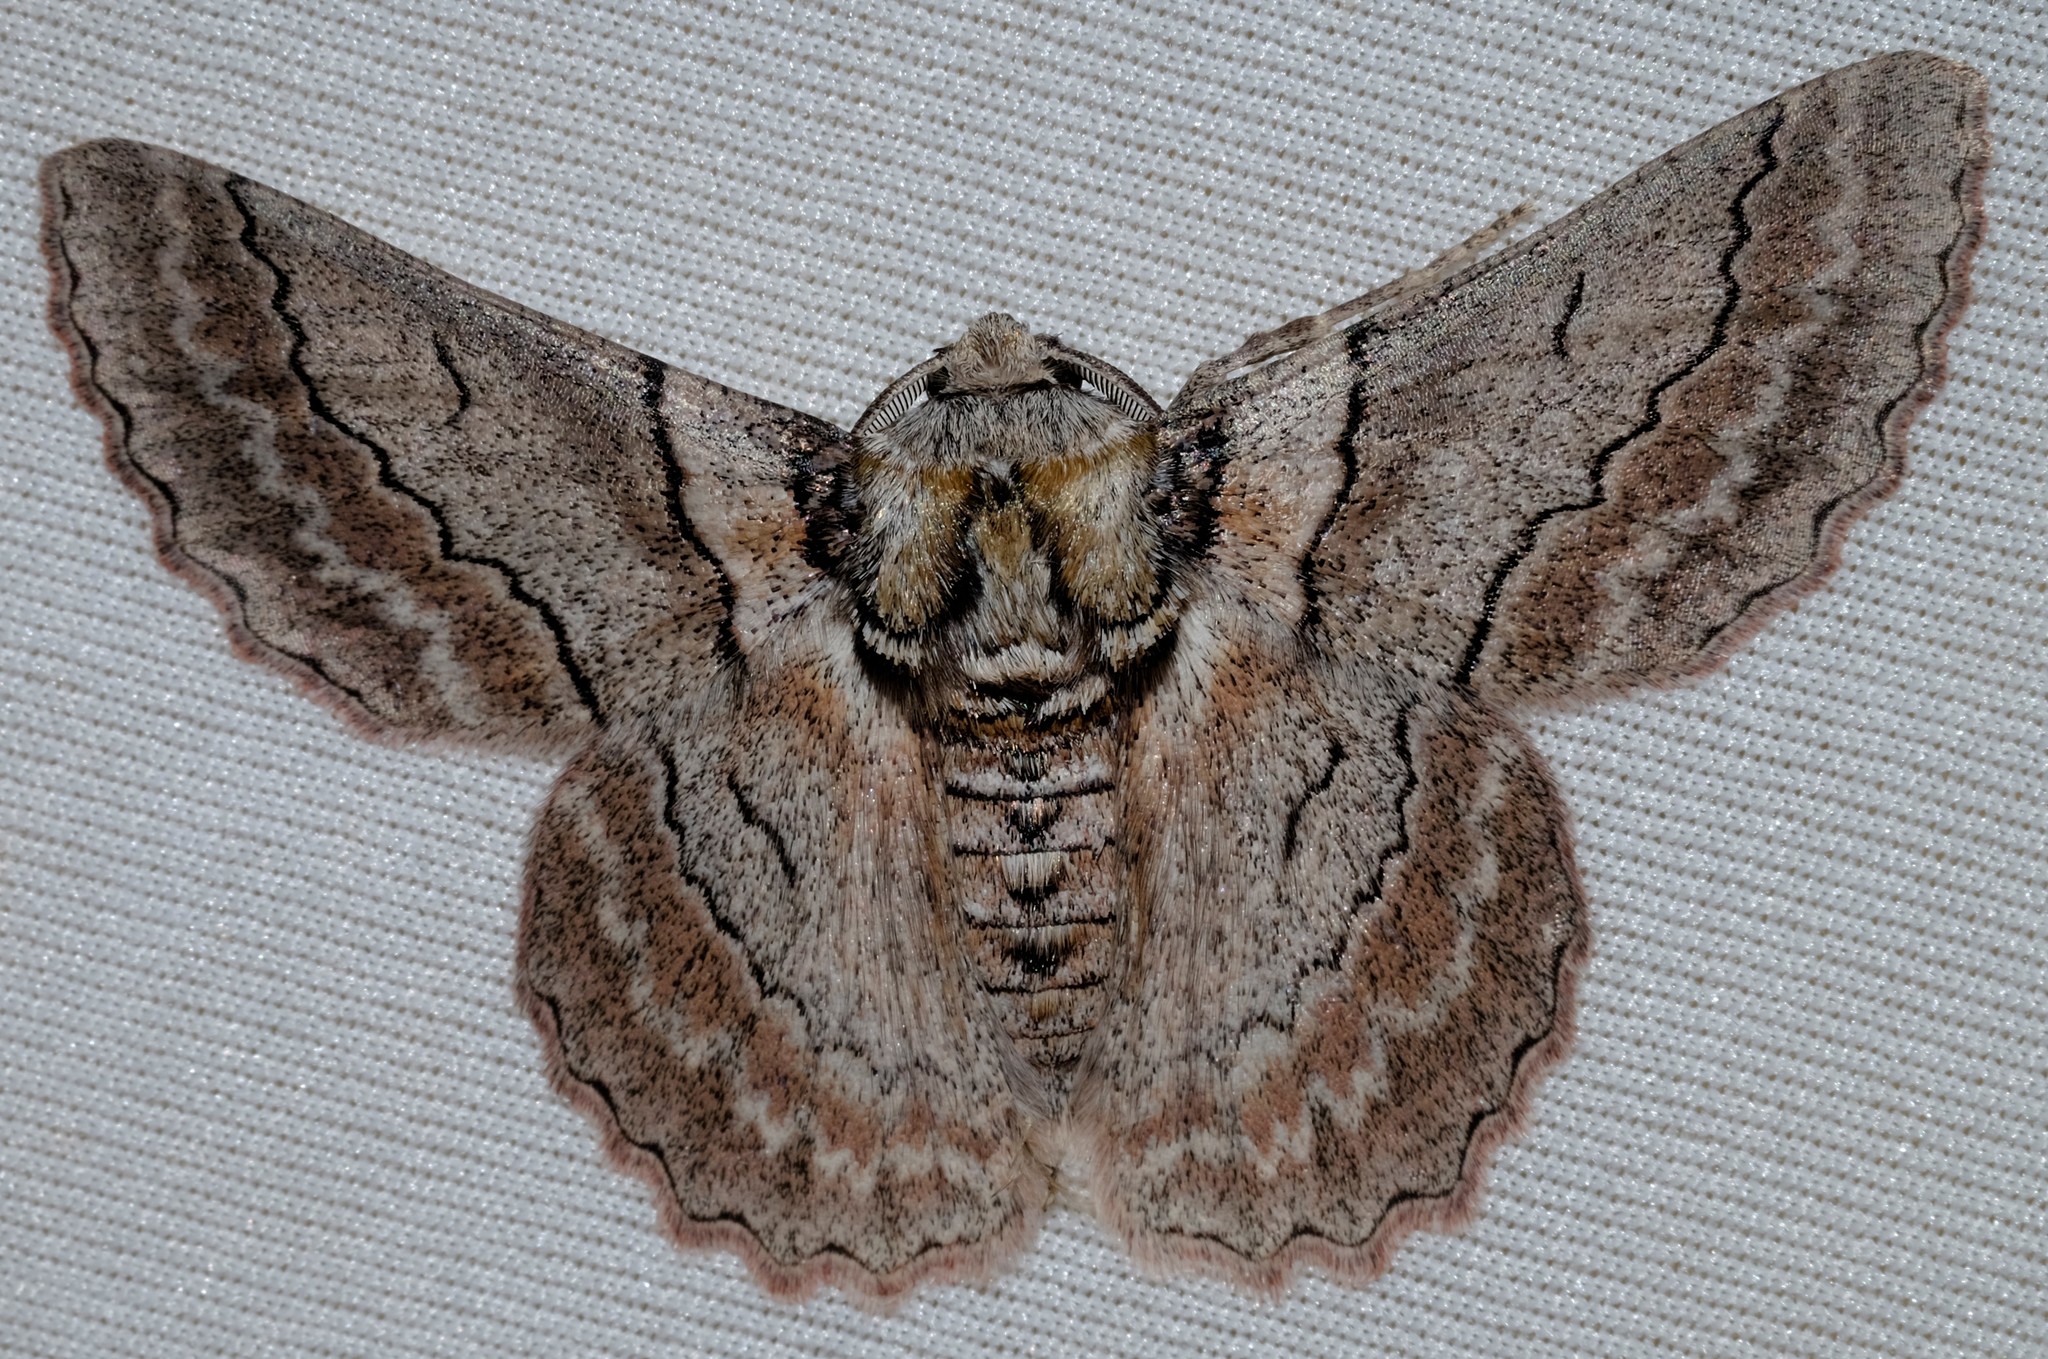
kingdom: Animalia
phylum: Arthropoda
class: Insecta
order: Lepidoptera
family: Geometridae
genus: Hypobapta
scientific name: Hypobapta tachyhalotaria
